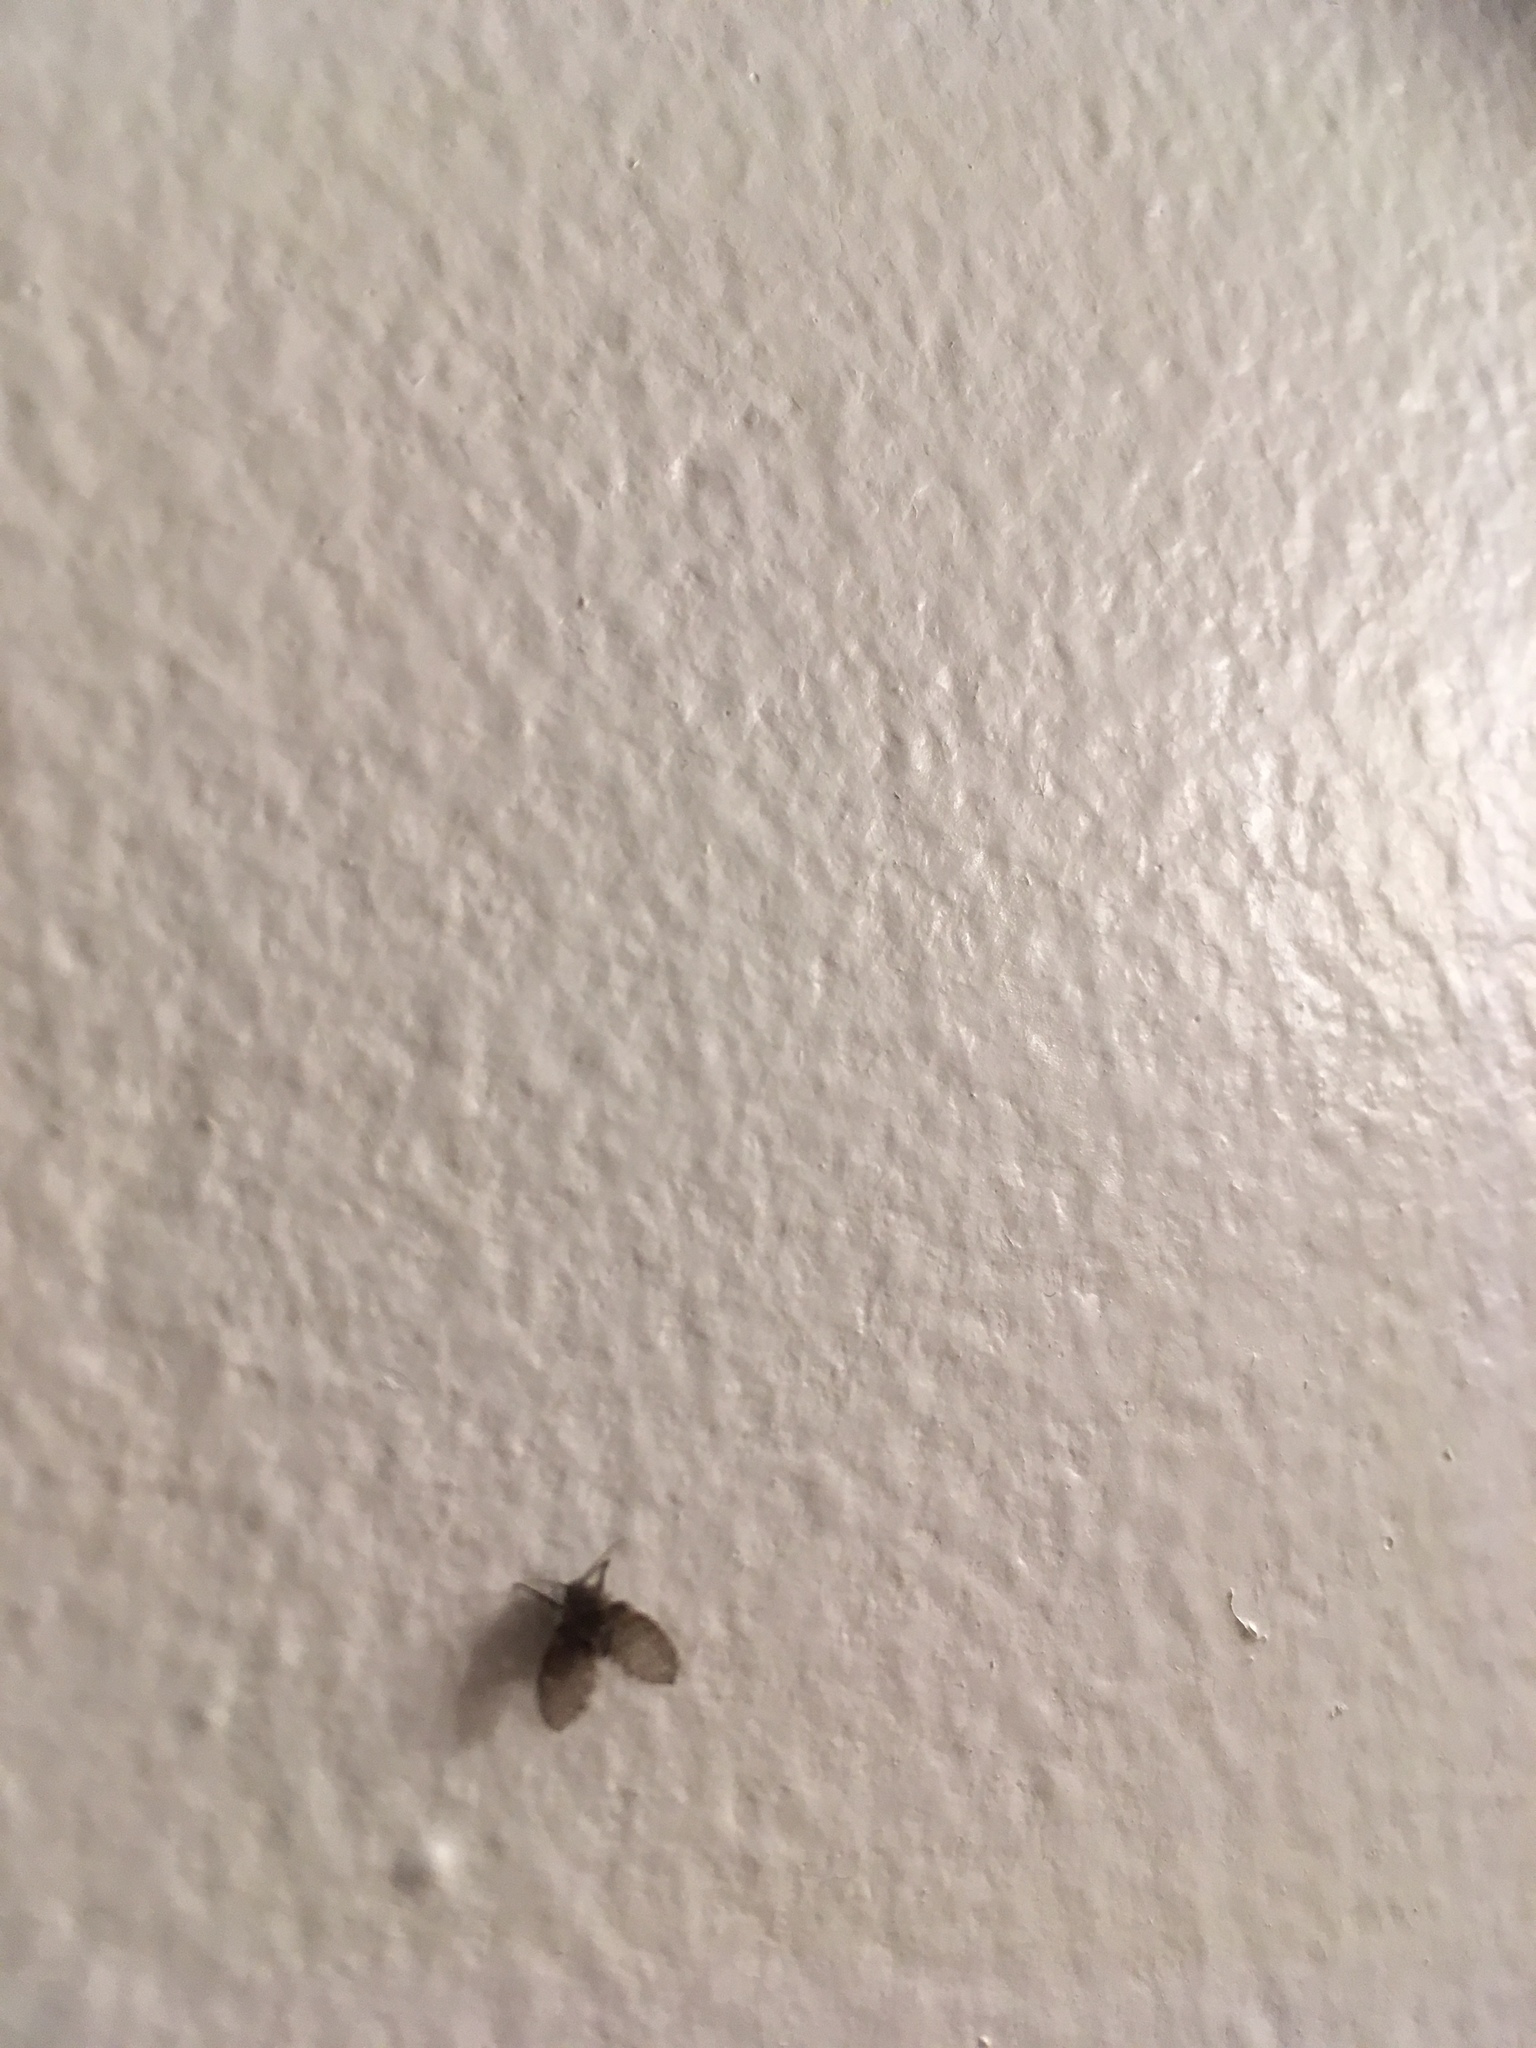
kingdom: Animalia
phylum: Arthropoda
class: Insecta
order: Diptera
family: Psychodidae
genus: Clogmia
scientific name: Clogmia albipunctatus
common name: White-spotted moth fly
